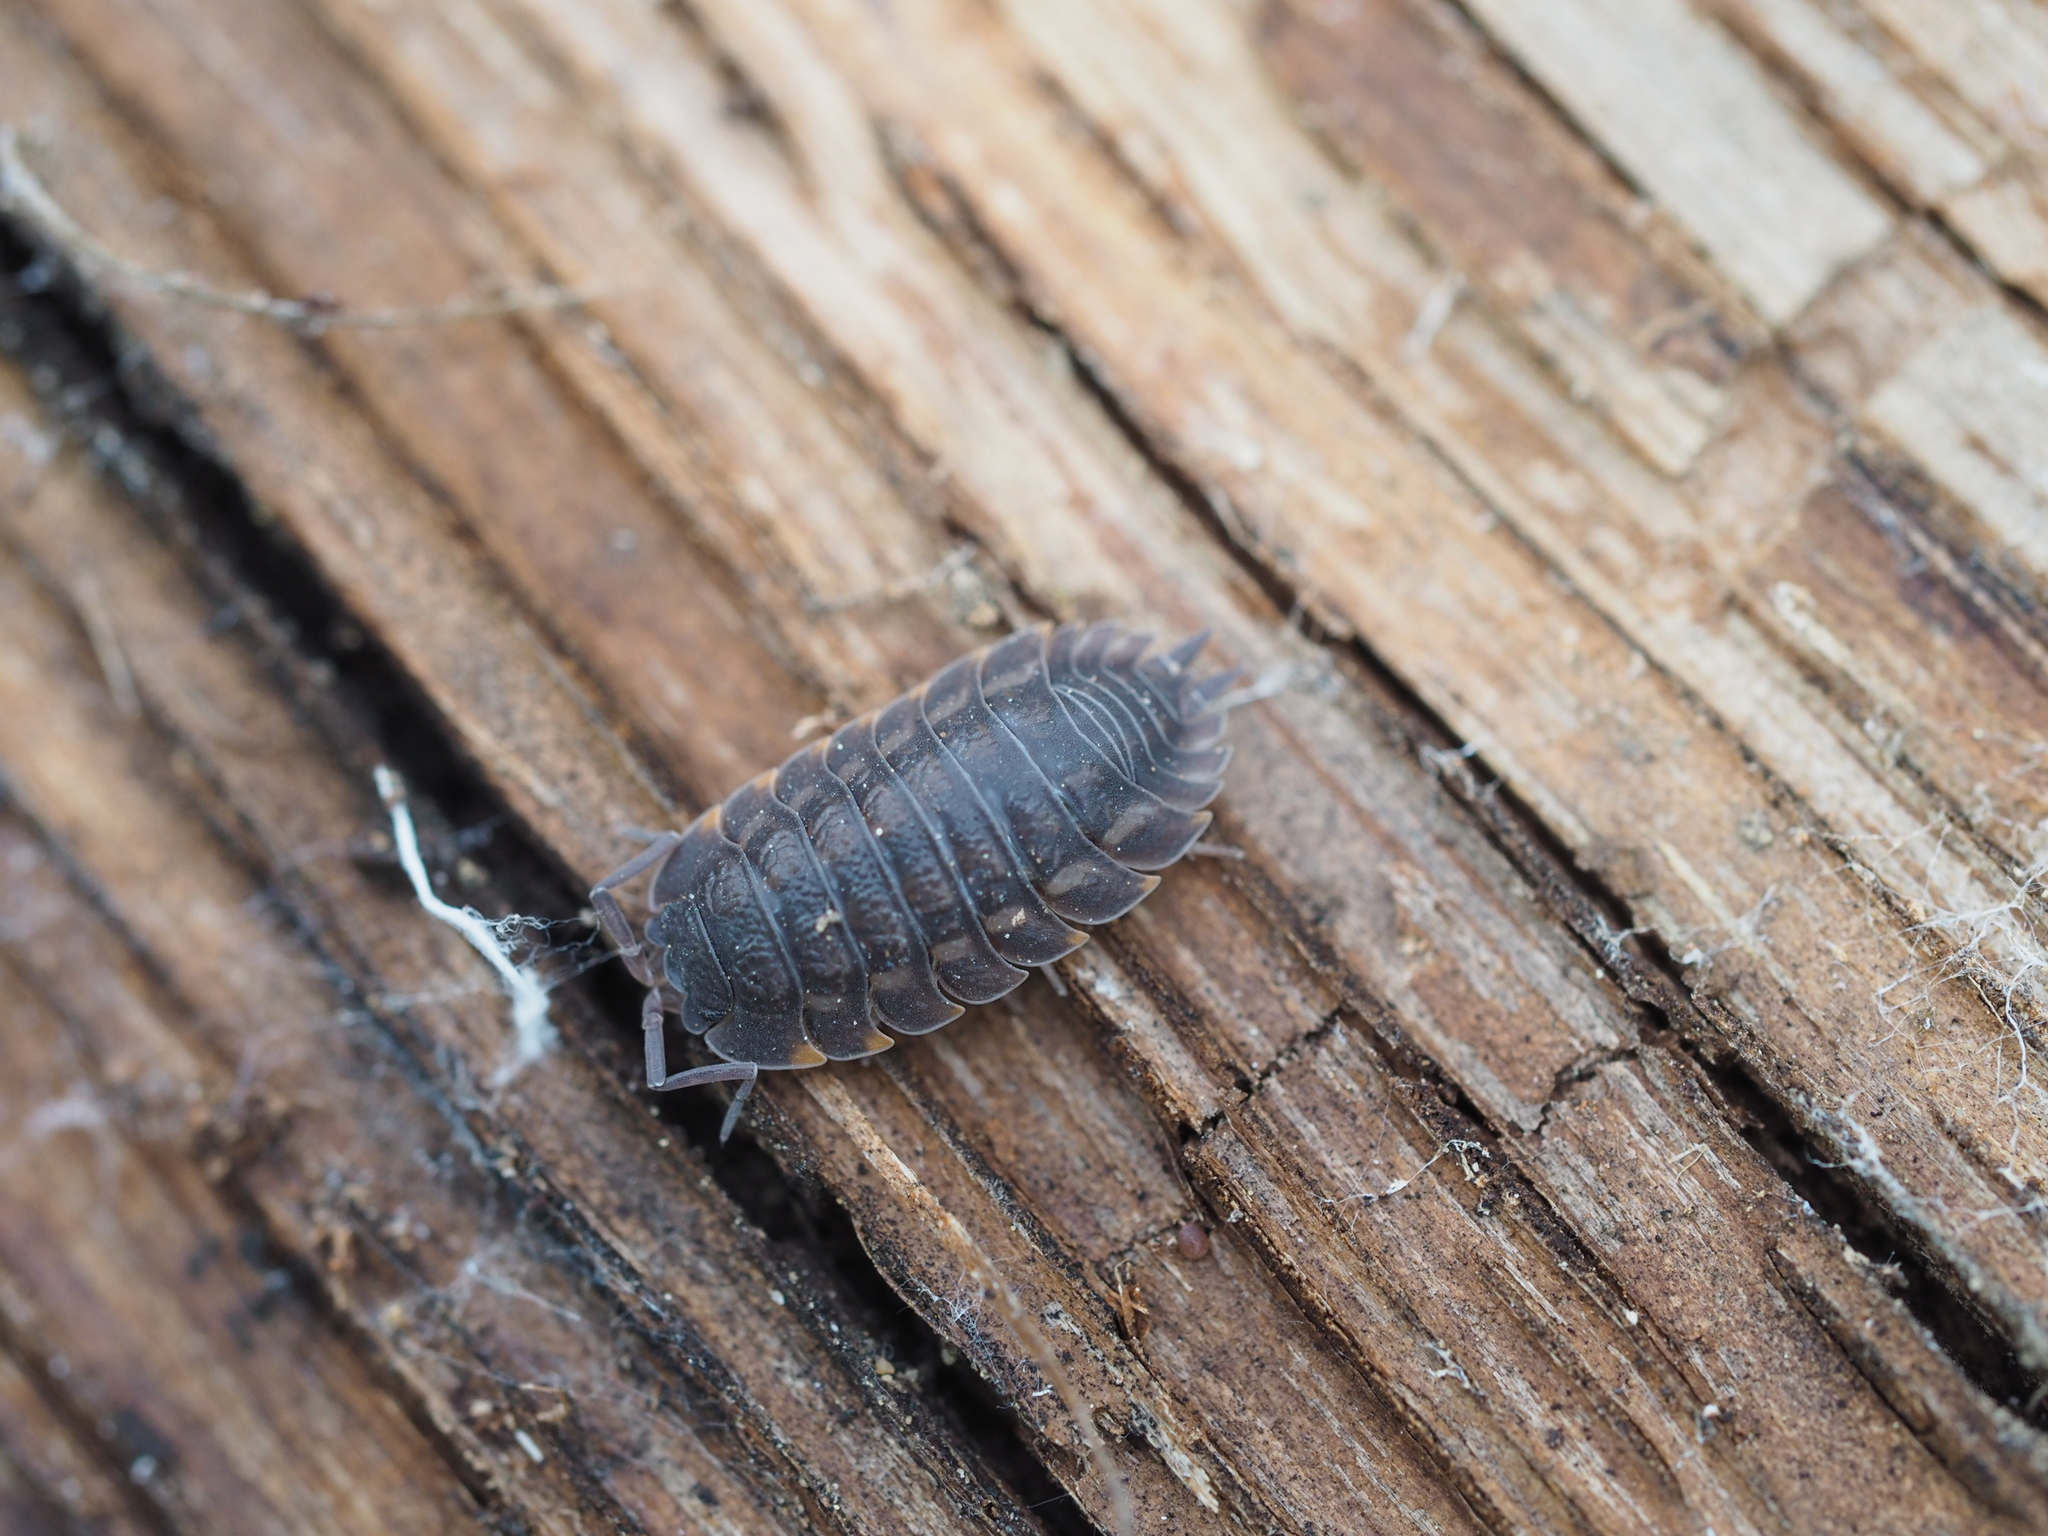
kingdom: Animalia
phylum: Arthropoda
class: Malacostraca
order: Isopoda
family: Trachelipodidae
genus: Trachelipus
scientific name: Trachelipus ratzeburgii
